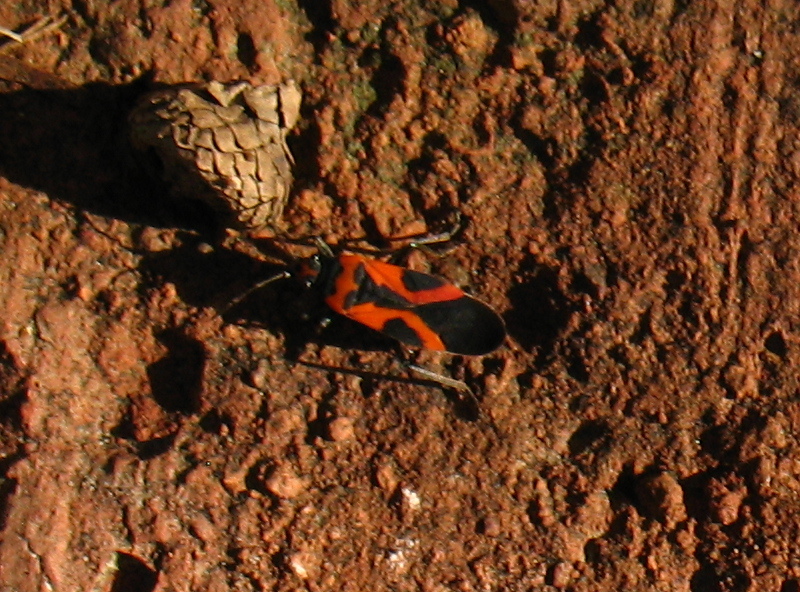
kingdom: Animalia
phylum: Arthropoda
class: Insecta
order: Hemiptera
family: Lygaeidae
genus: Lygaeus
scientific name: Lygaeus turcicus
